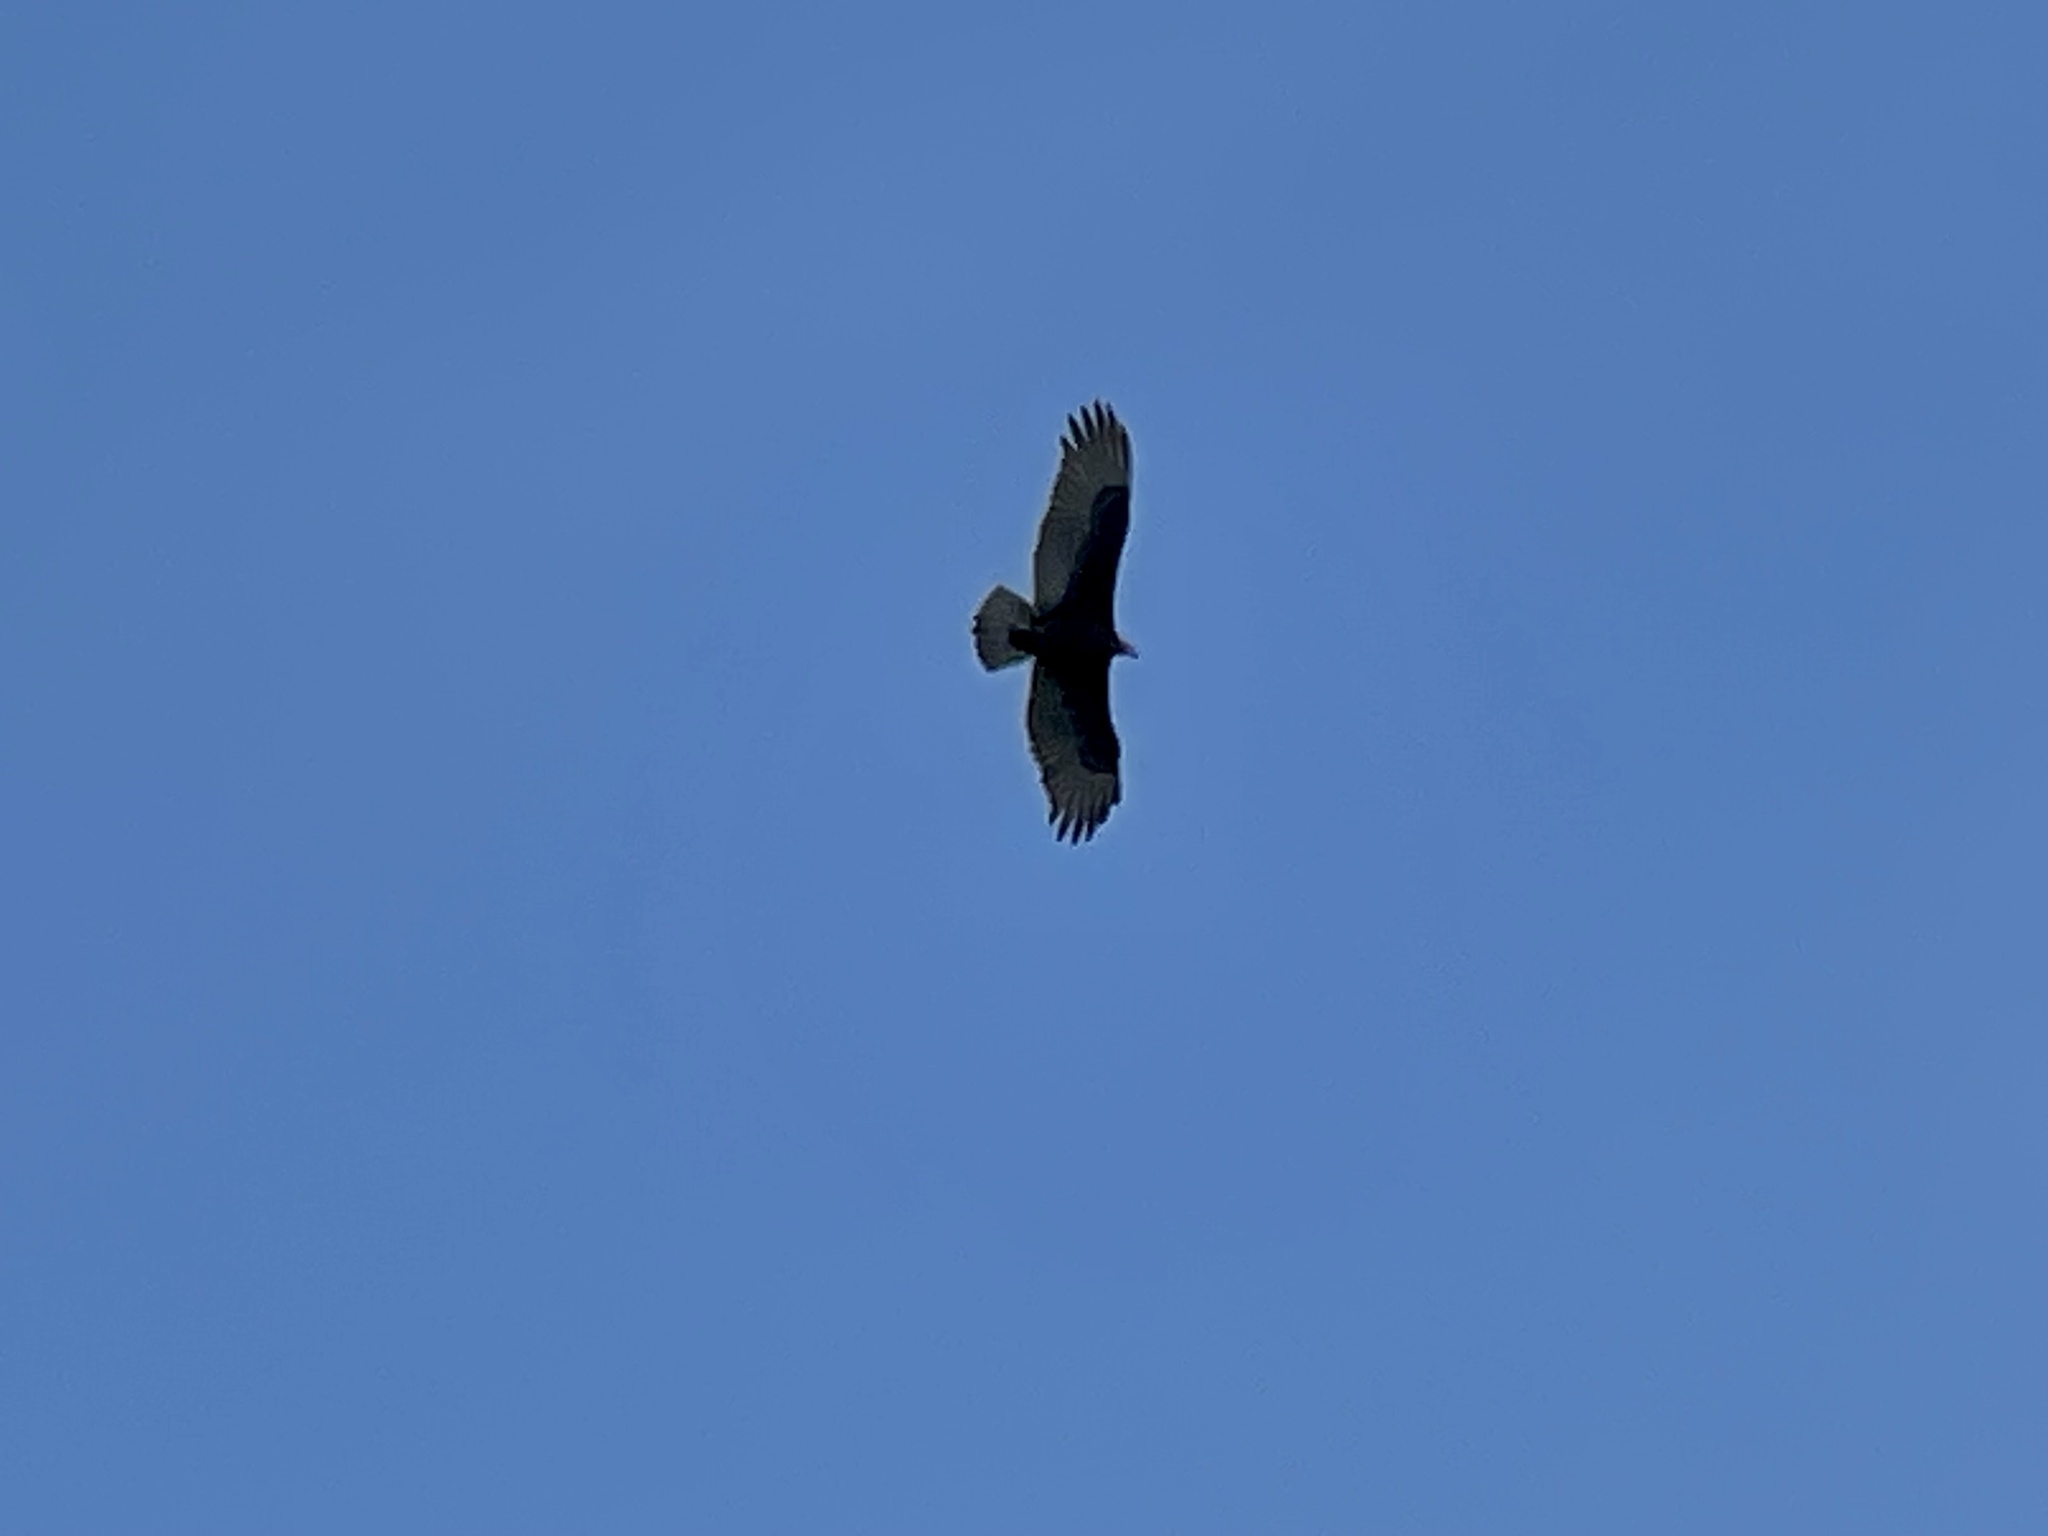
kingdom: Animalia
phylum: Chordata
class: Aves
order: Accipitriformes
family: Cathartidae
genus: Cathartes
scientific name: Cathartes aura
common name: Turkey vulture
